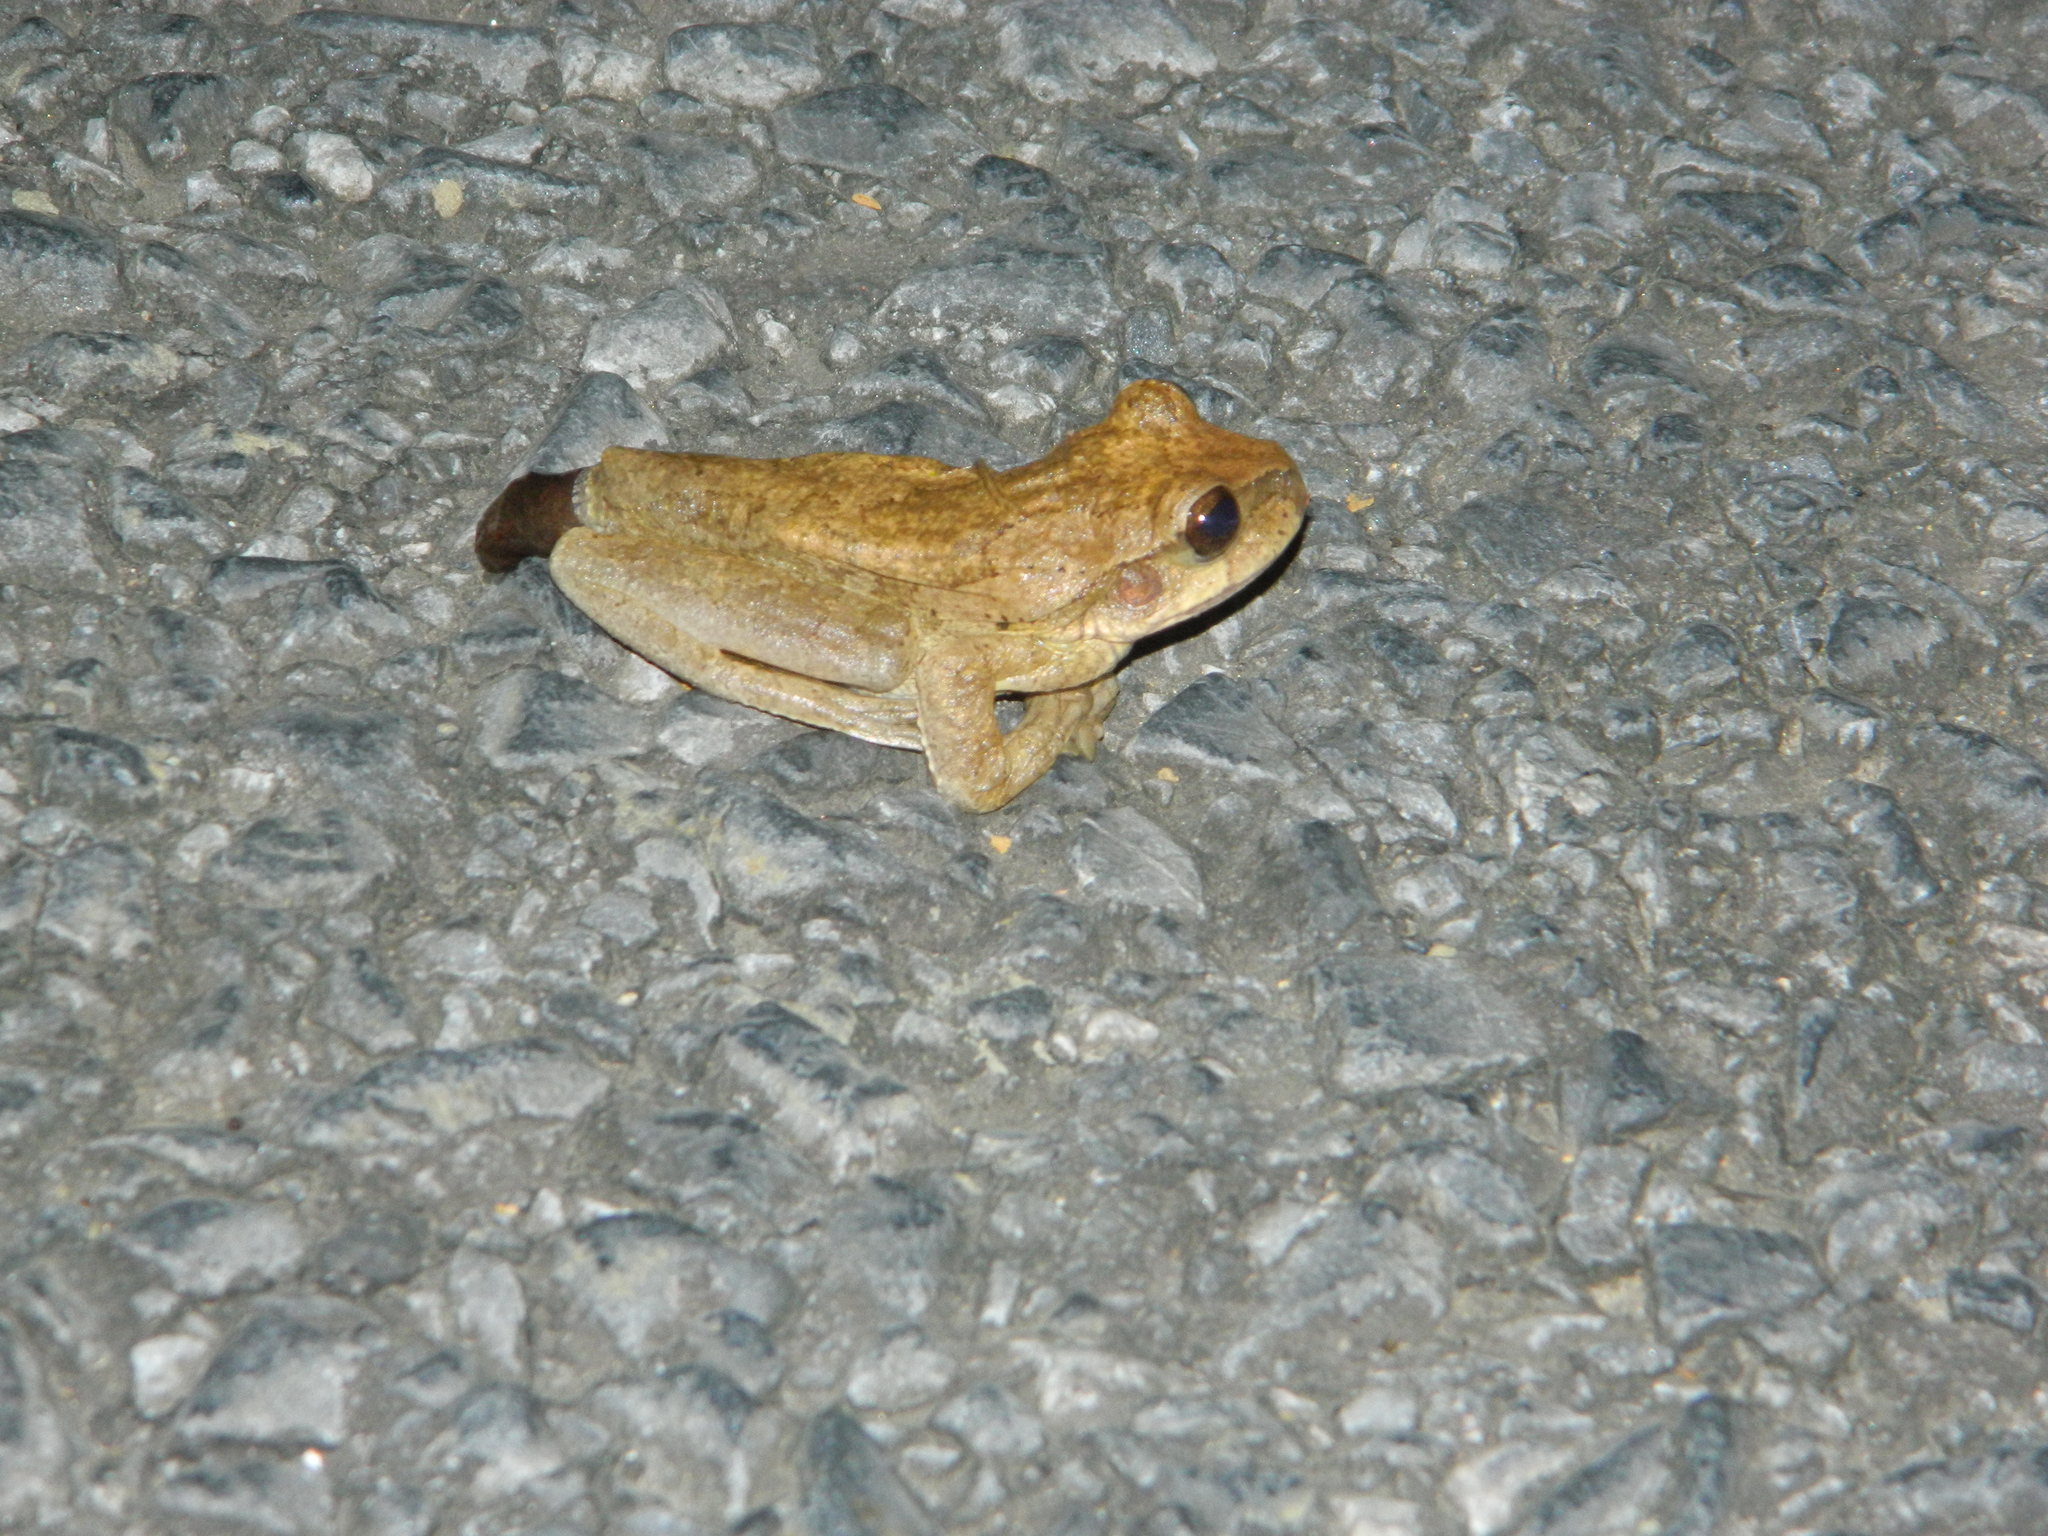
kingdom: Animalia
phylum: Chordata
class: Amphibia
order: Anura
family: Hylidae
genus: Smilisca
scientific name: Smilisca baudinii
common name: Mexican smilisca
